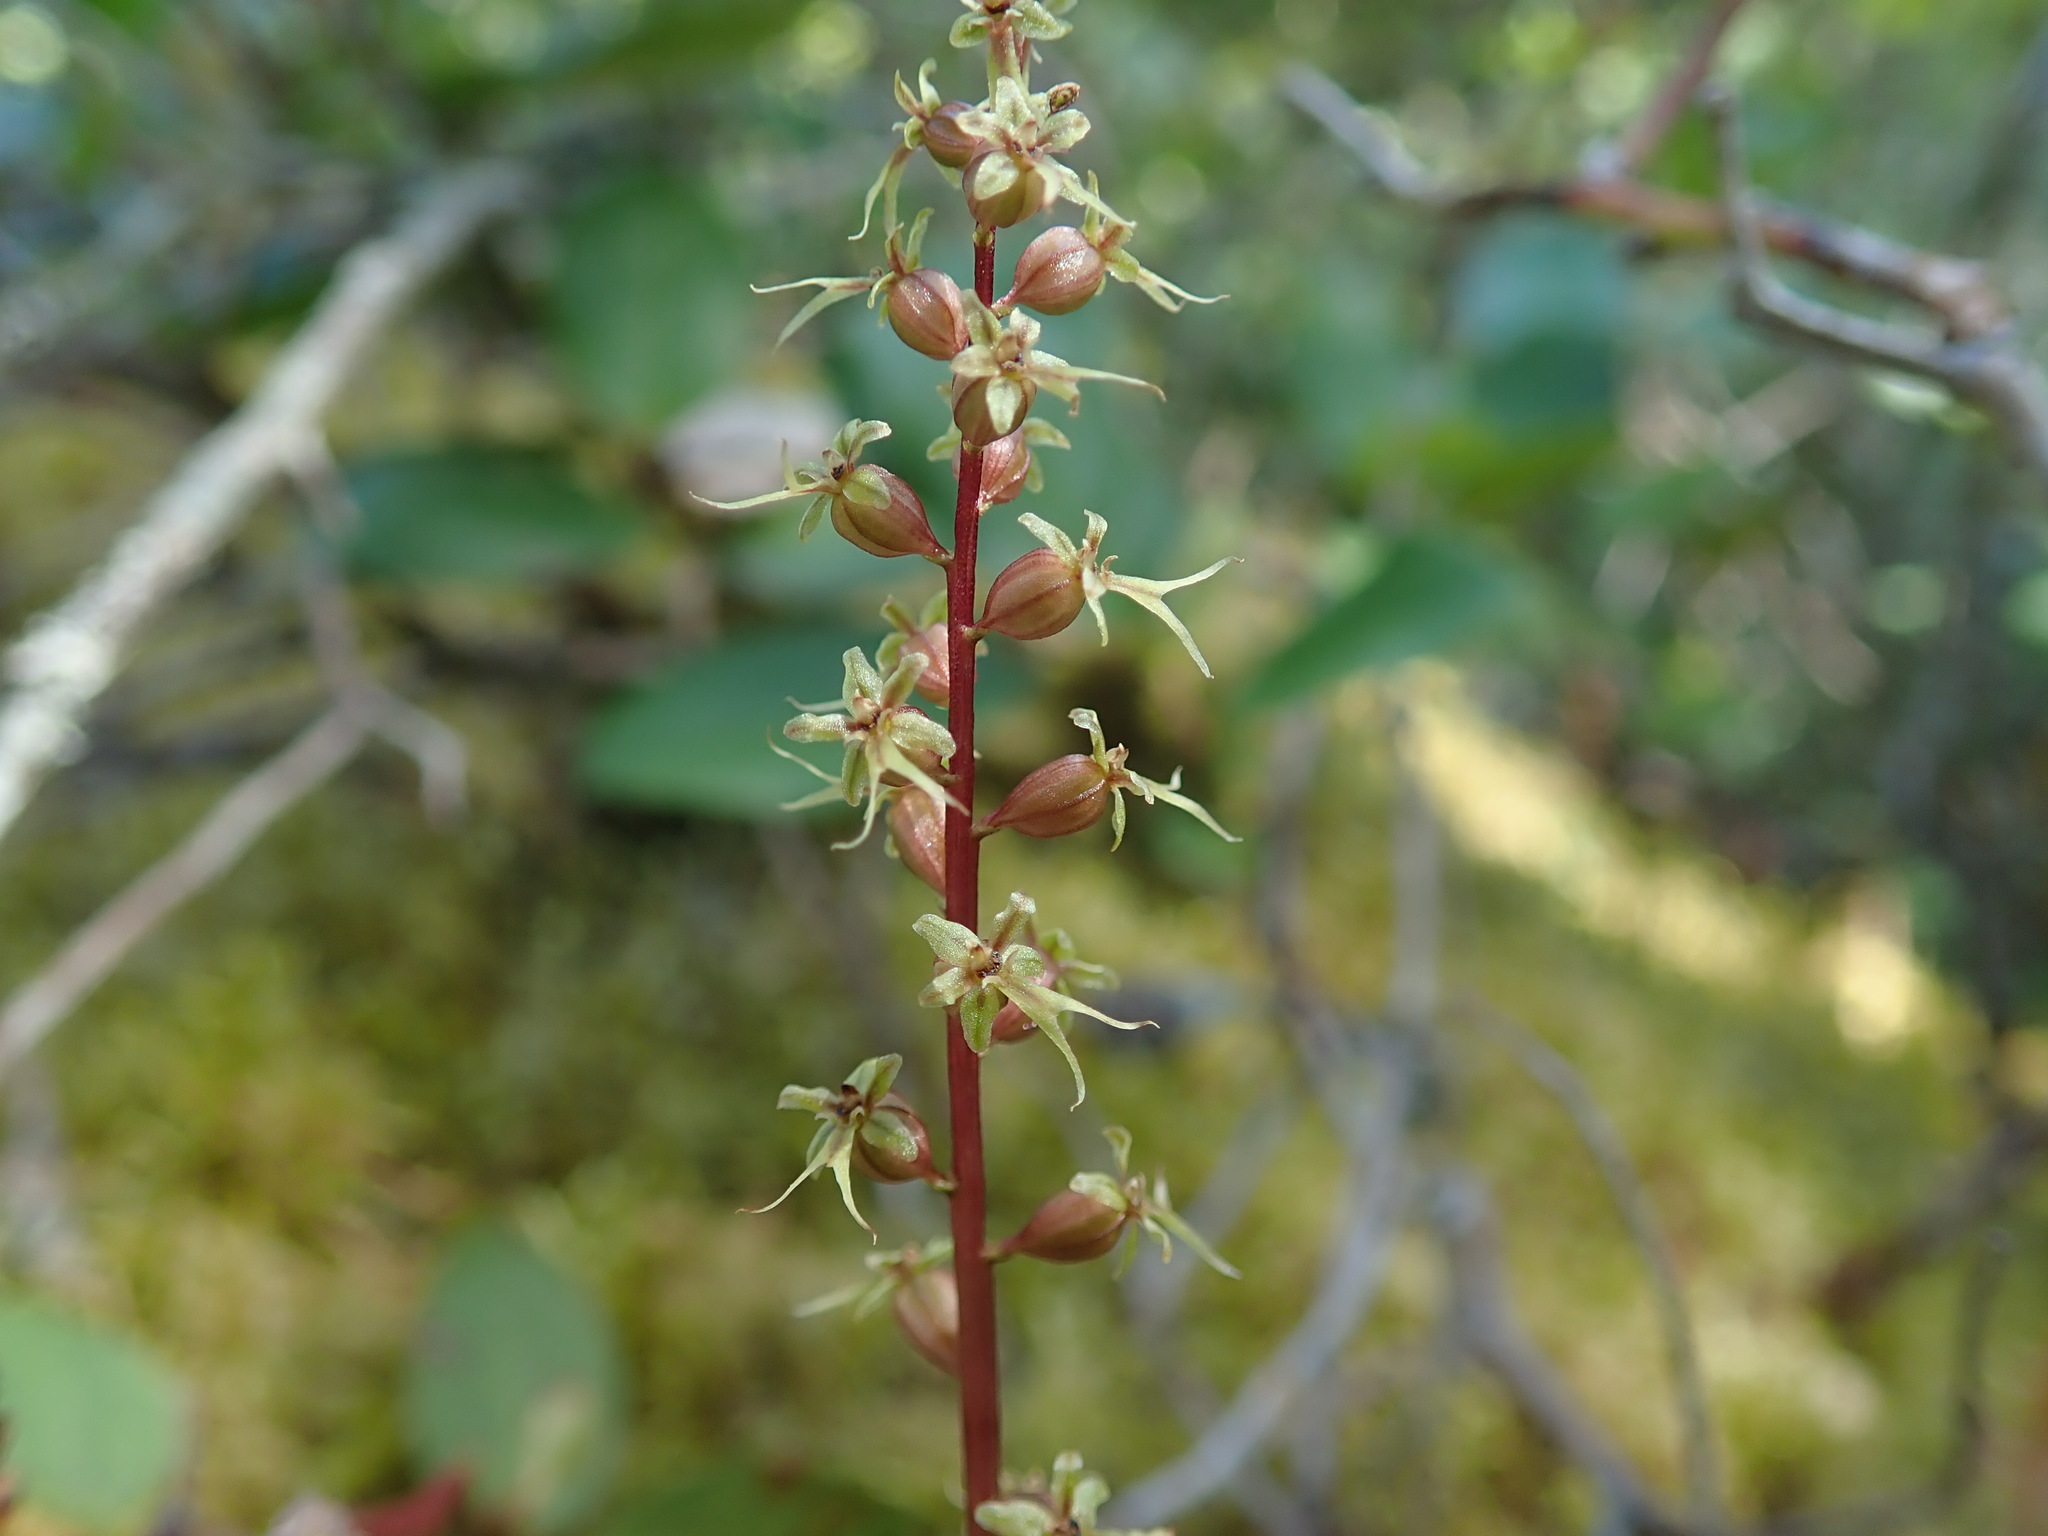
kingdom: Plantae
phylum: Tracheophyta
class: Liliopsida
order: Asparagales
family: Orchidaceae
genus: Neottia
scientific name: Neottia cordata
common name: Lesser twayblade
